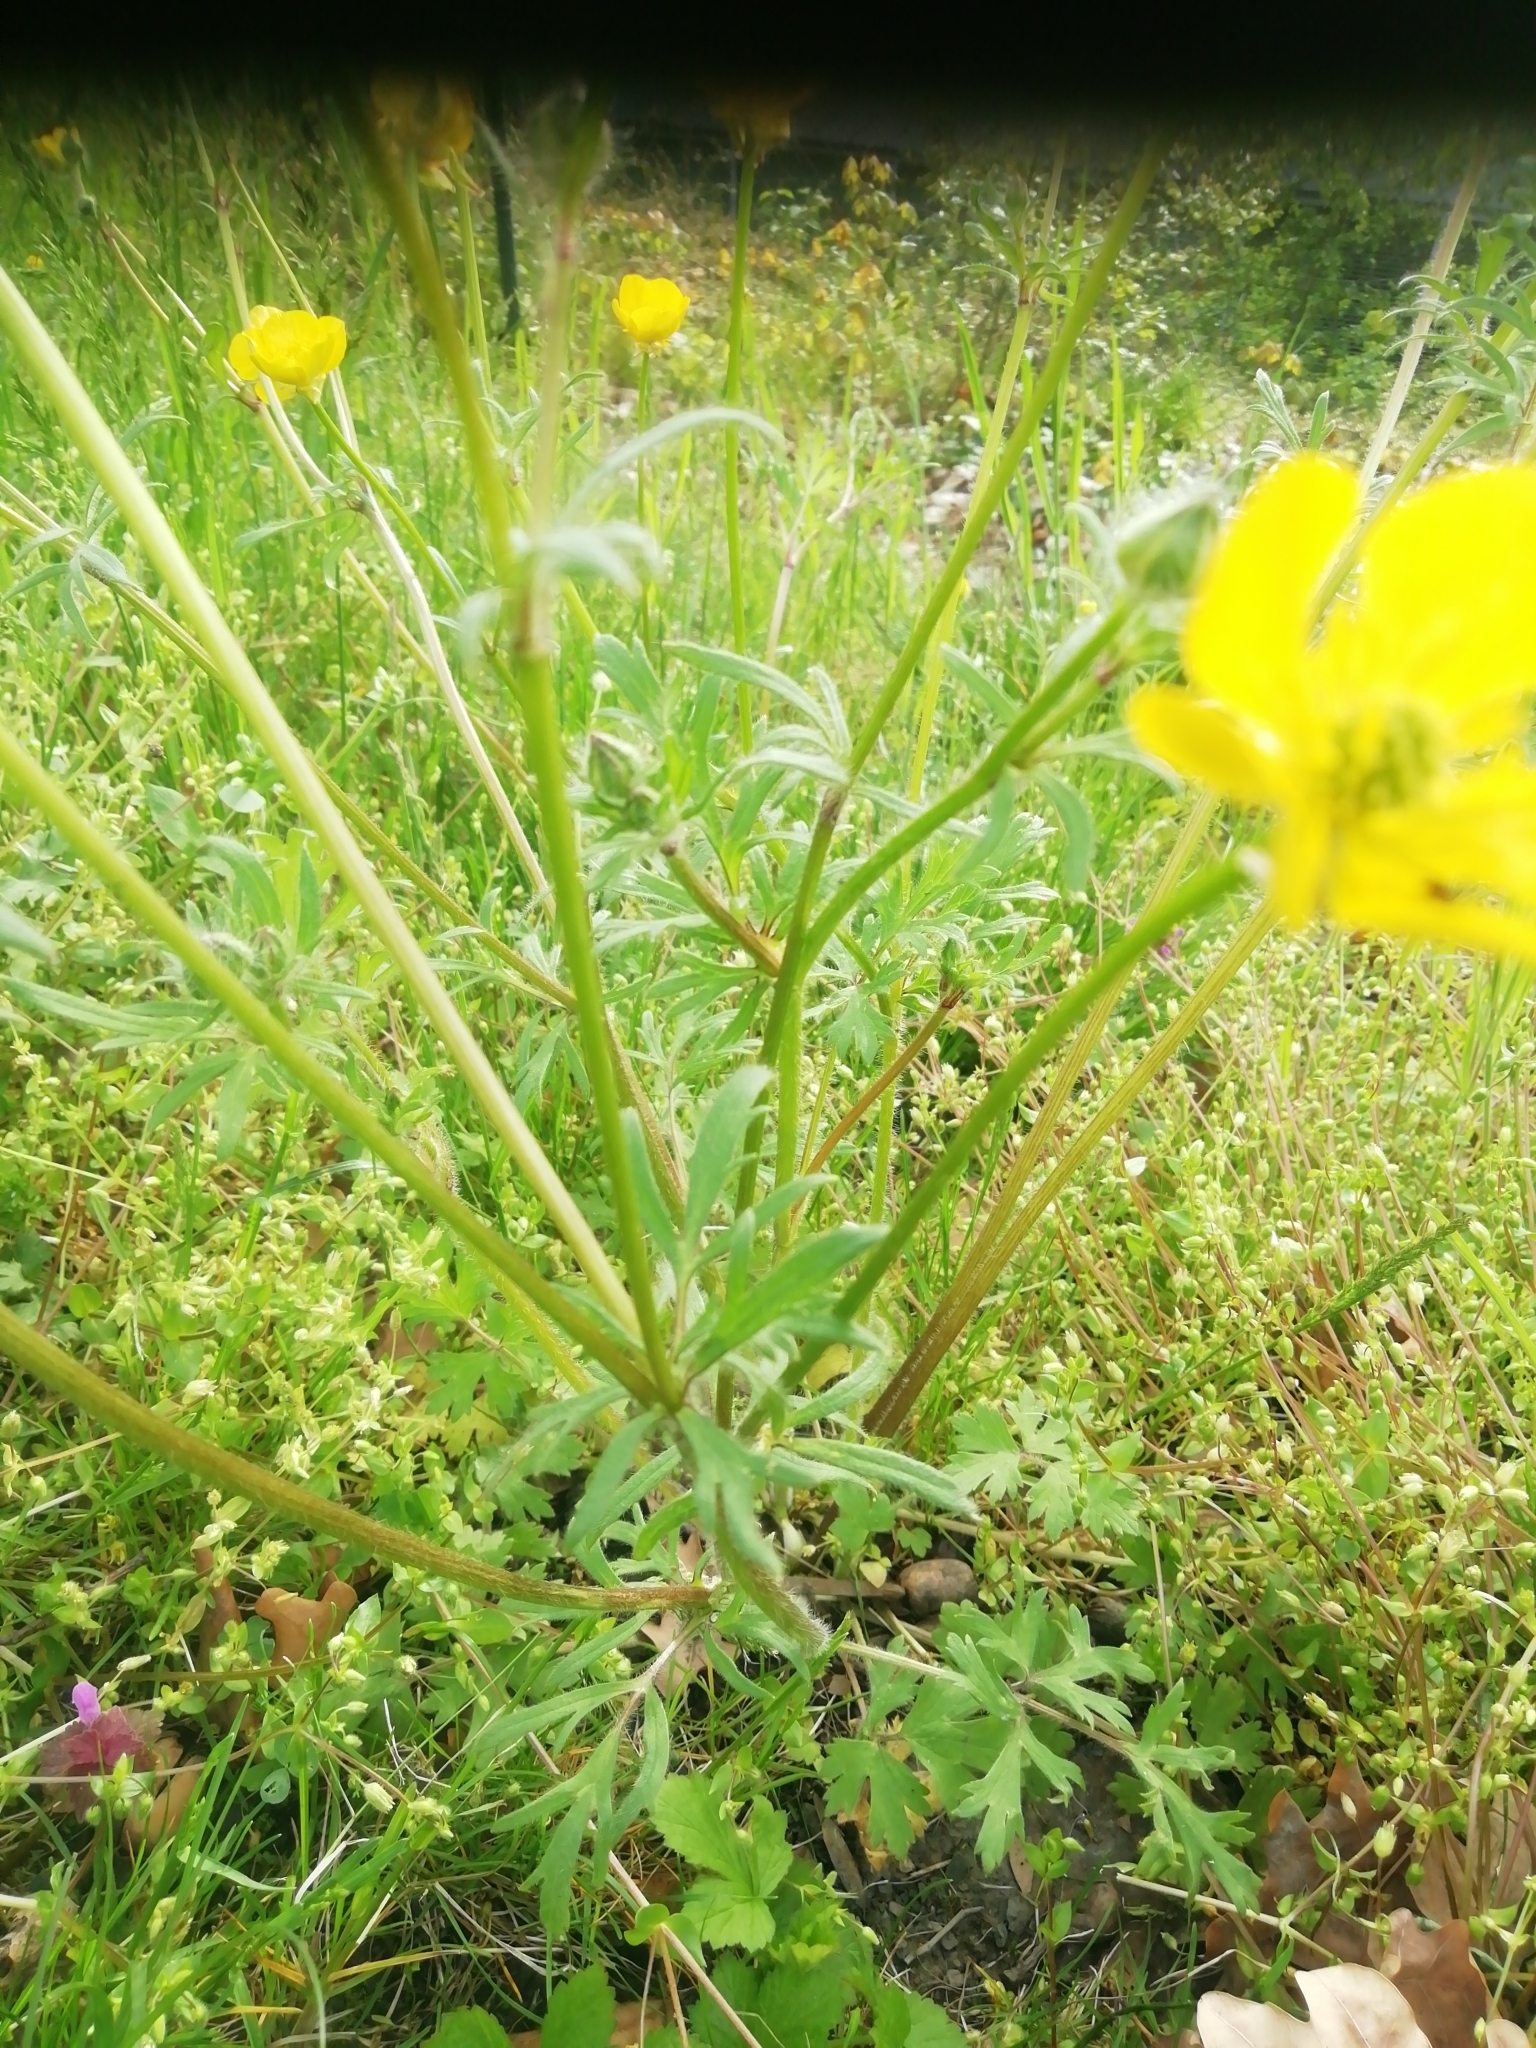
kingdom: Plantae
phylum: Tracheophyta
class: Magnoliopsida
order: Ranunculales
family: Ranunculaceae
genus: Ranunculus
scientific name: Ranunculus bulbosus
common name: Bulbous buttercup
